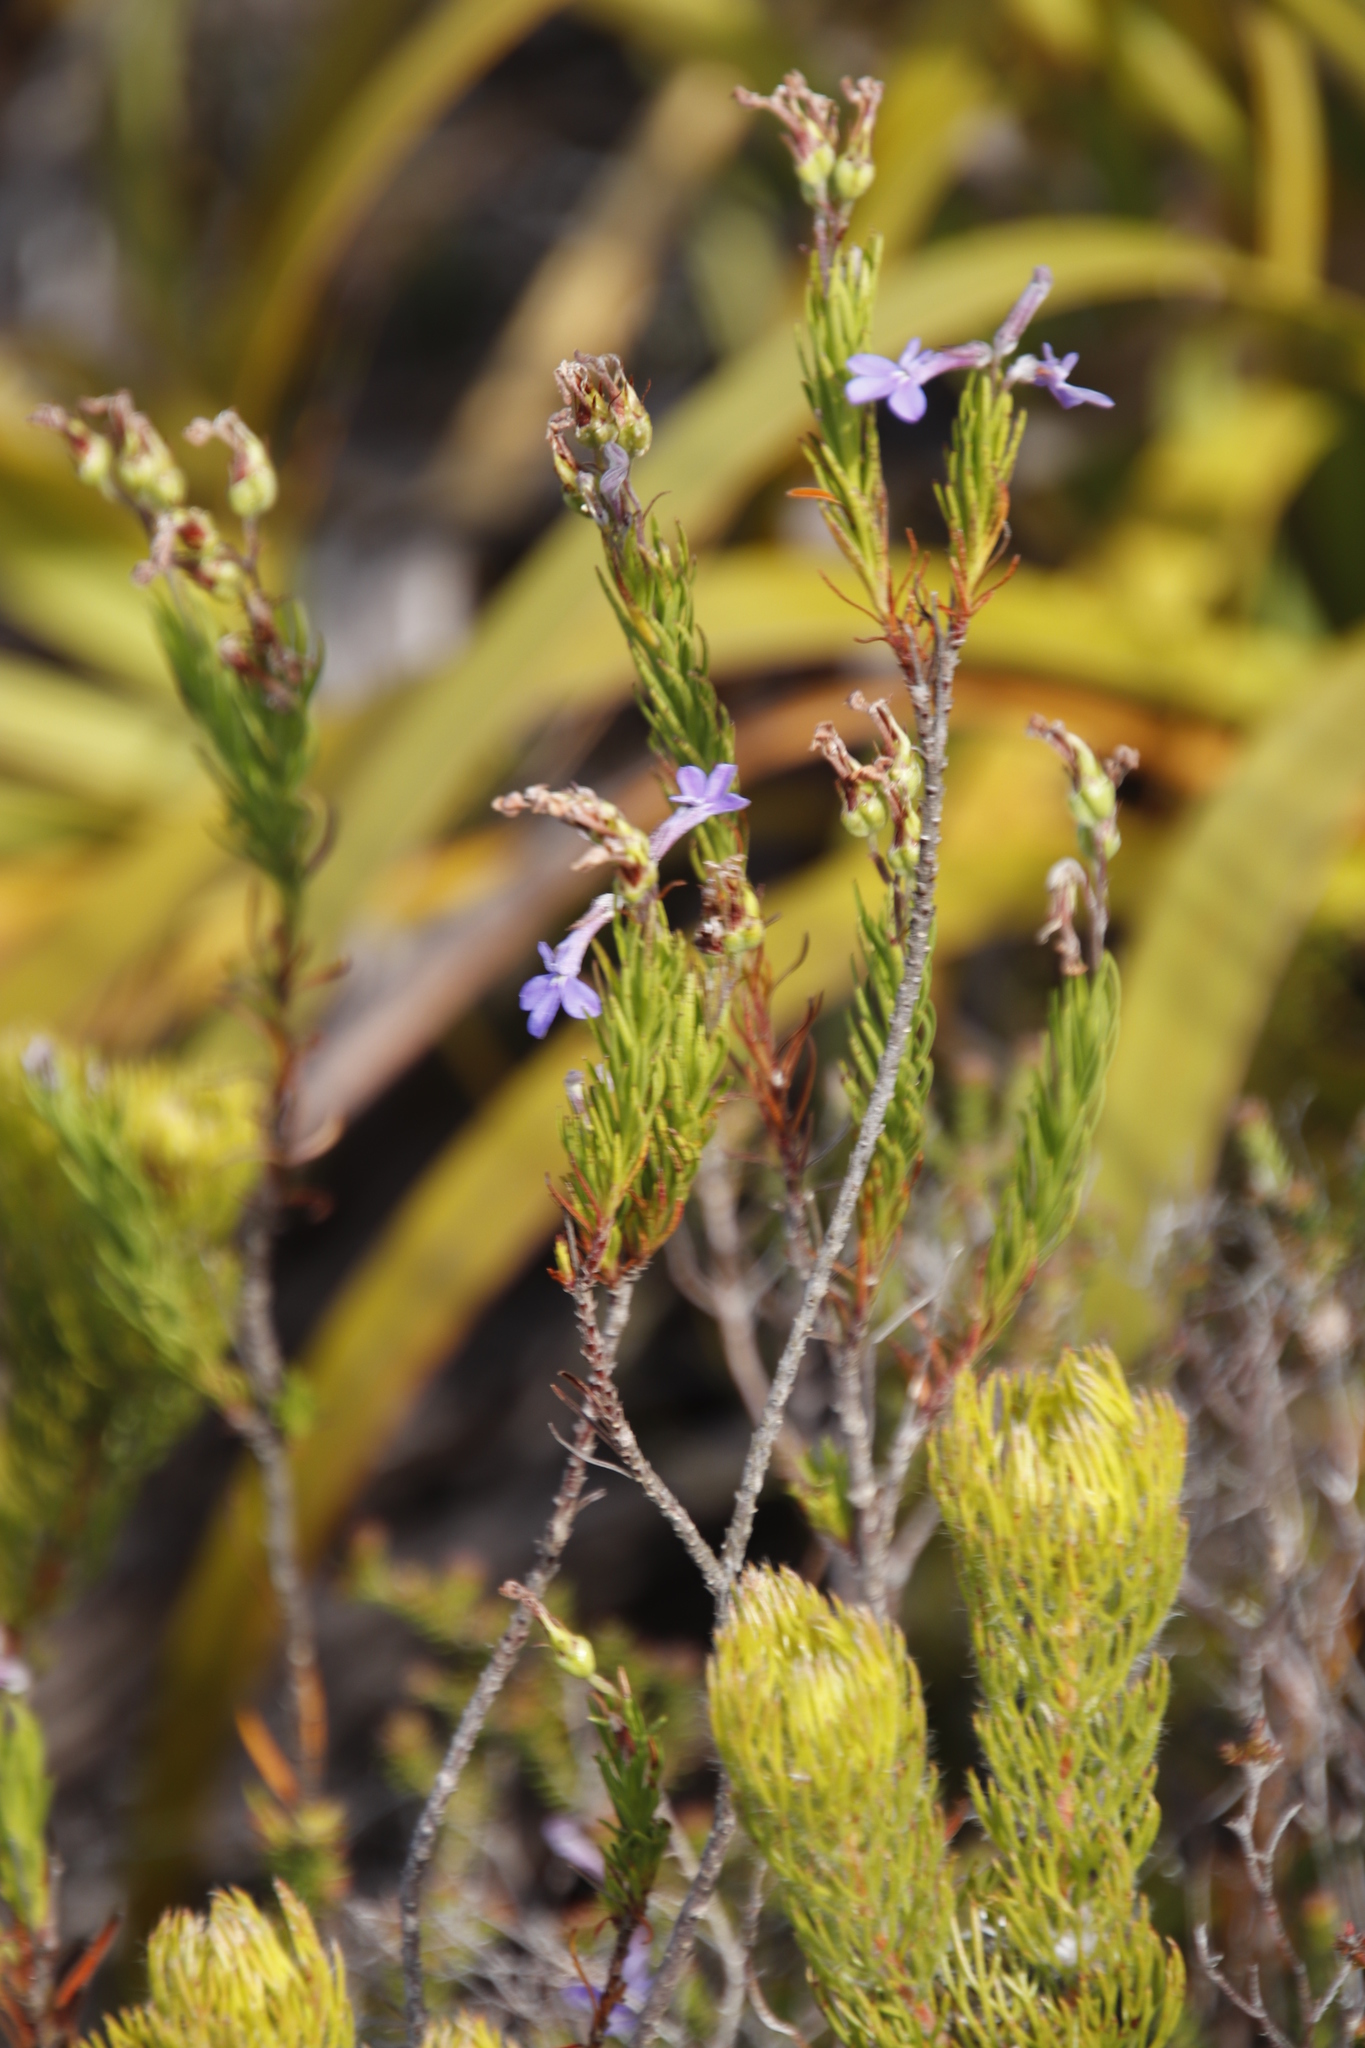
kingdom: Plantae
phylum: Tracheophyta
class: Magnoliopsida
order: Asterales
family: Campanulaceae
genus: Lobelia
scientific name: Lobelia pinifolia
